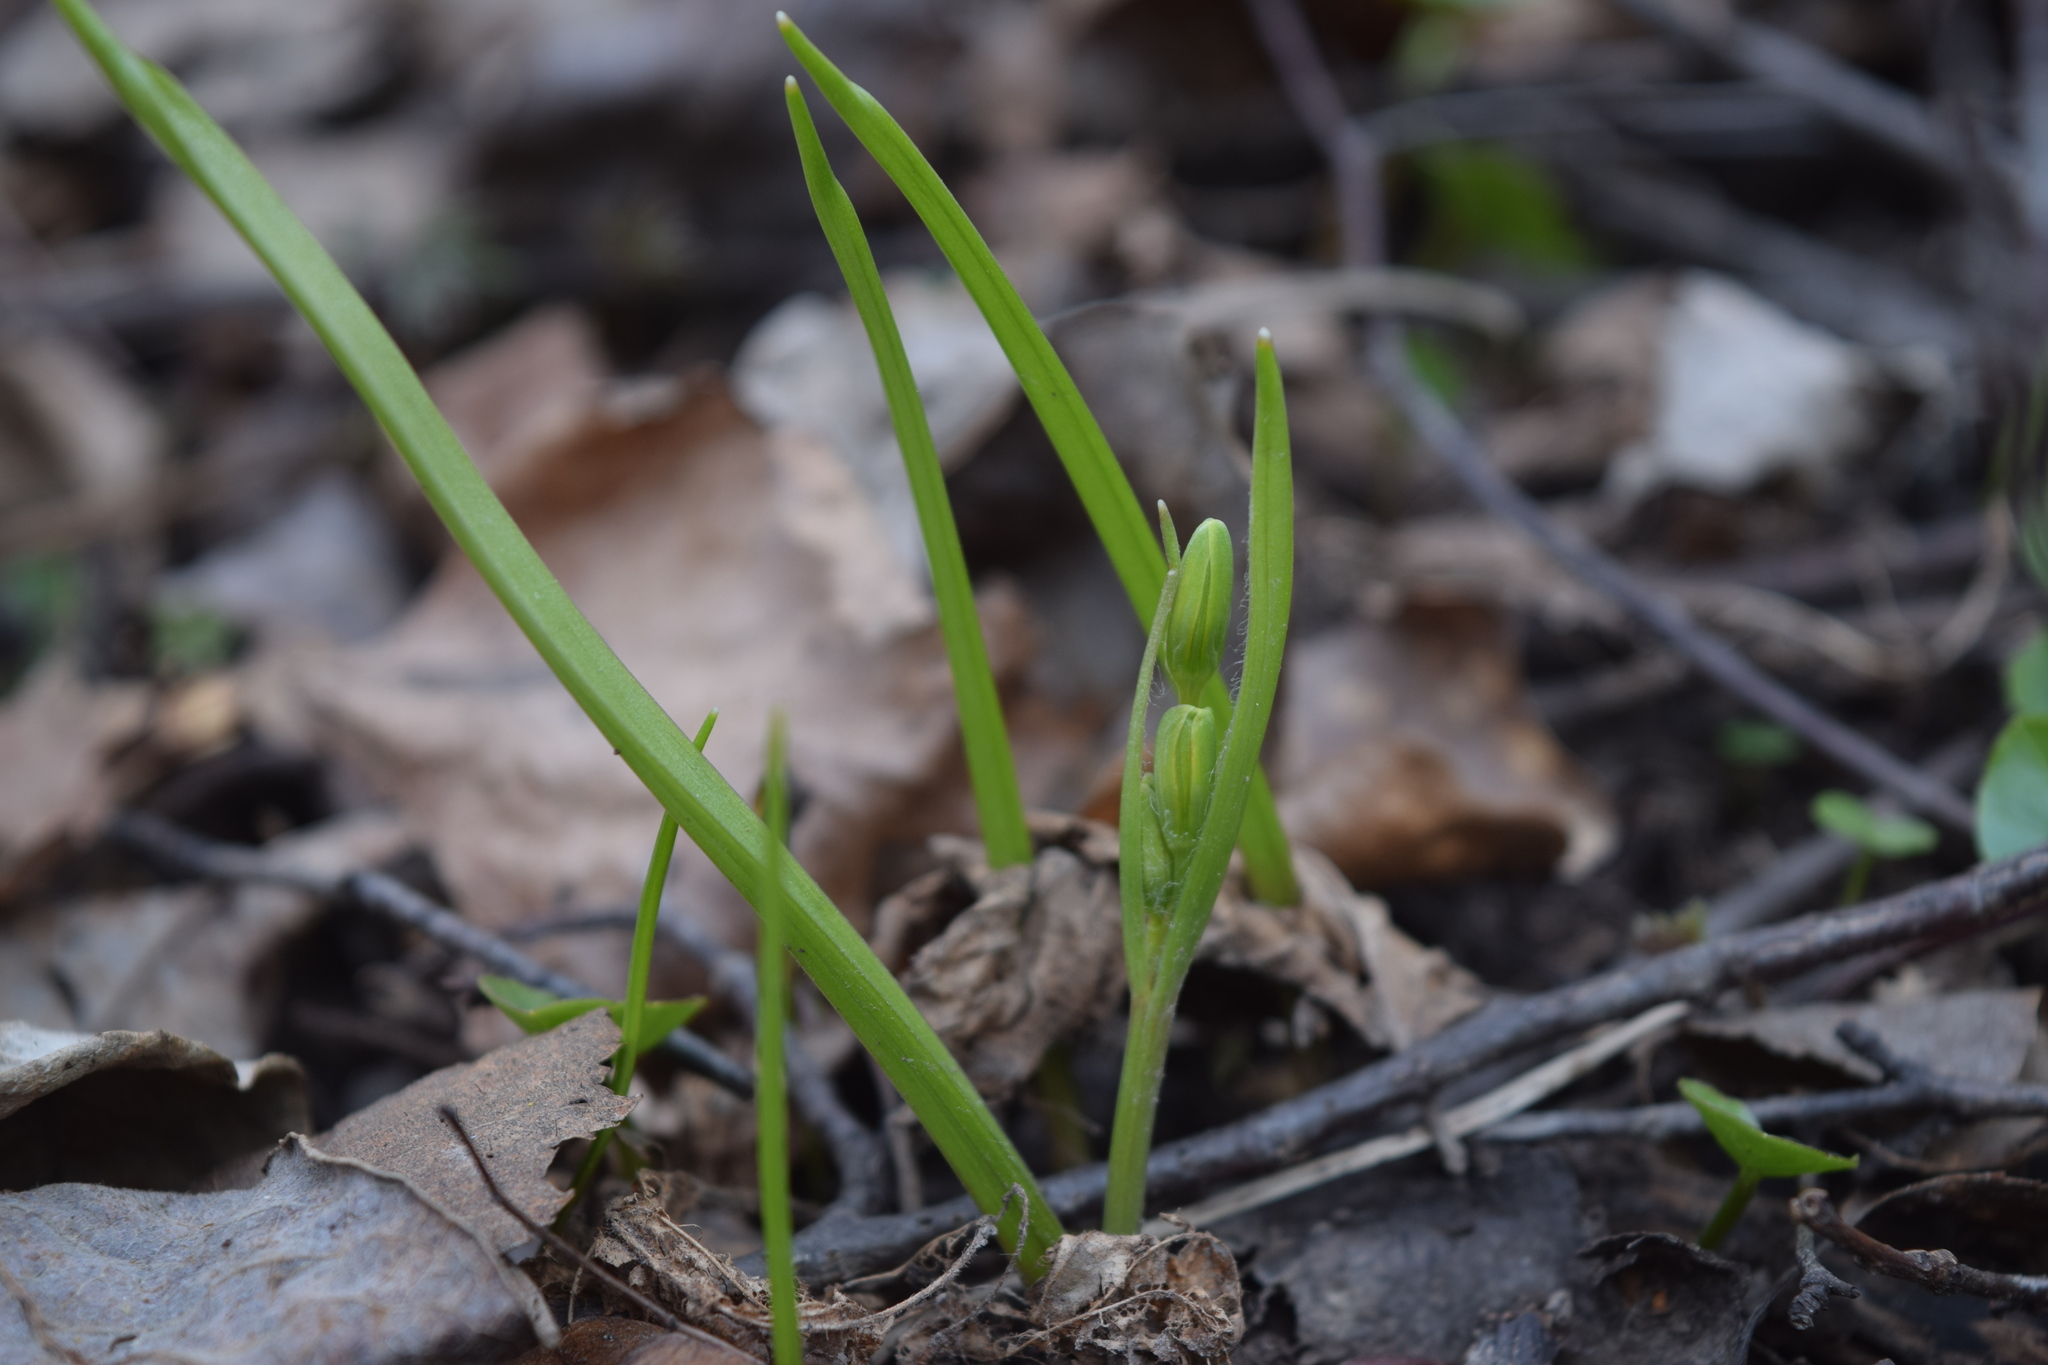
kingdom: Plantae
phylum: Tracheophyta
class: Liliopsida
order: Liliales
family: Liliaceae
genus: Gagea
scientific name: Gagea lutea
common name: Yellow star-of-bethlehem
